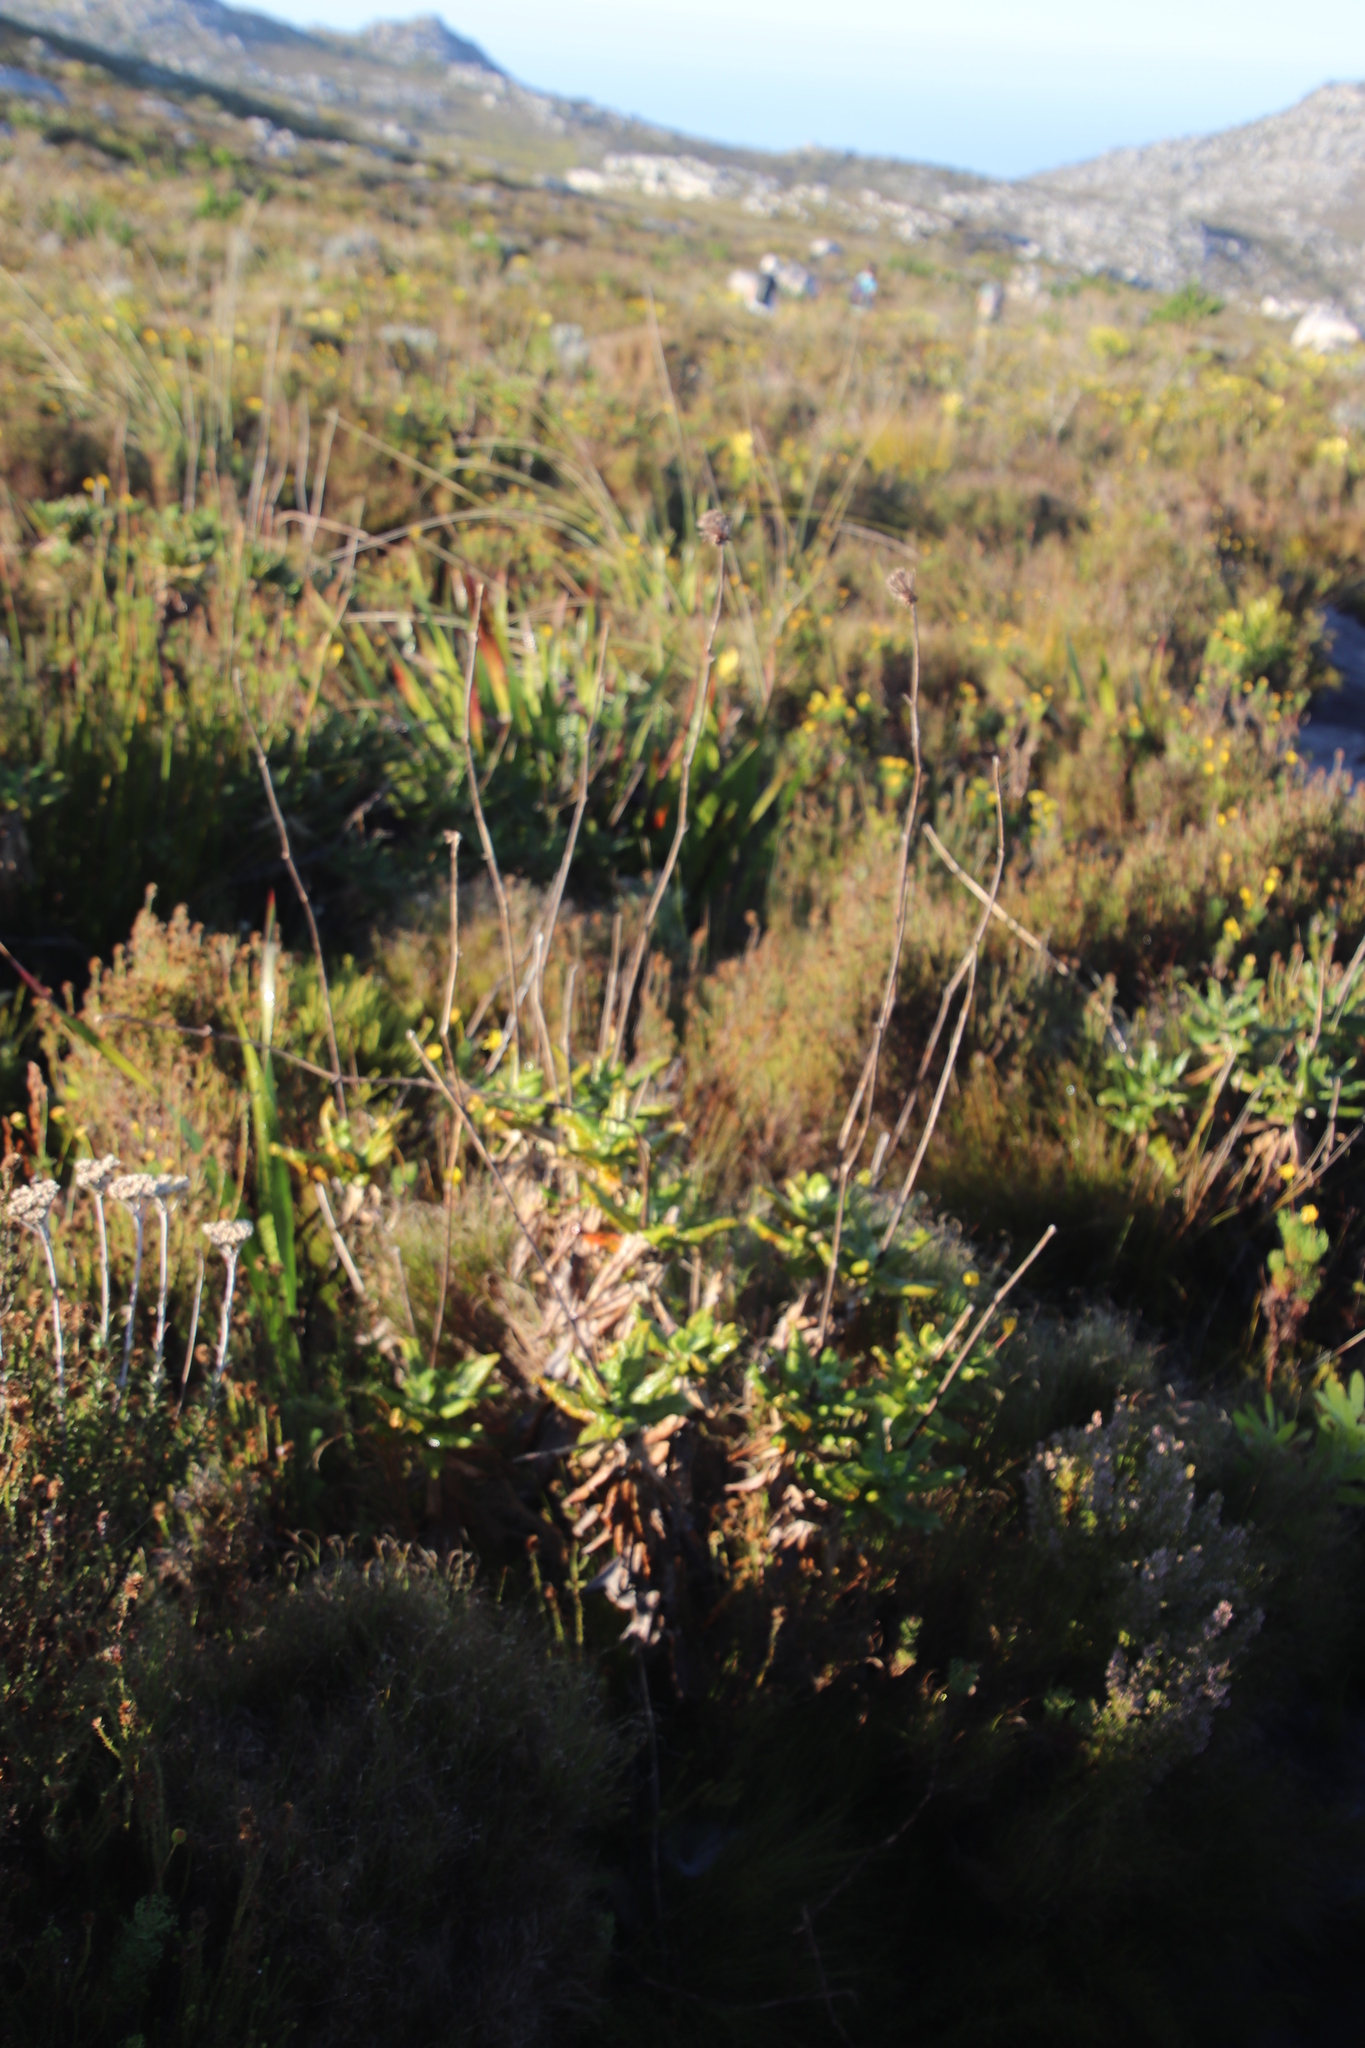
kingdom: Plantae
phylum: Tracheophyta
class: Magnoliopsida
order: Apiales
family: Apiaceae
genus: Hermas
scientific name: Hermas villosa
